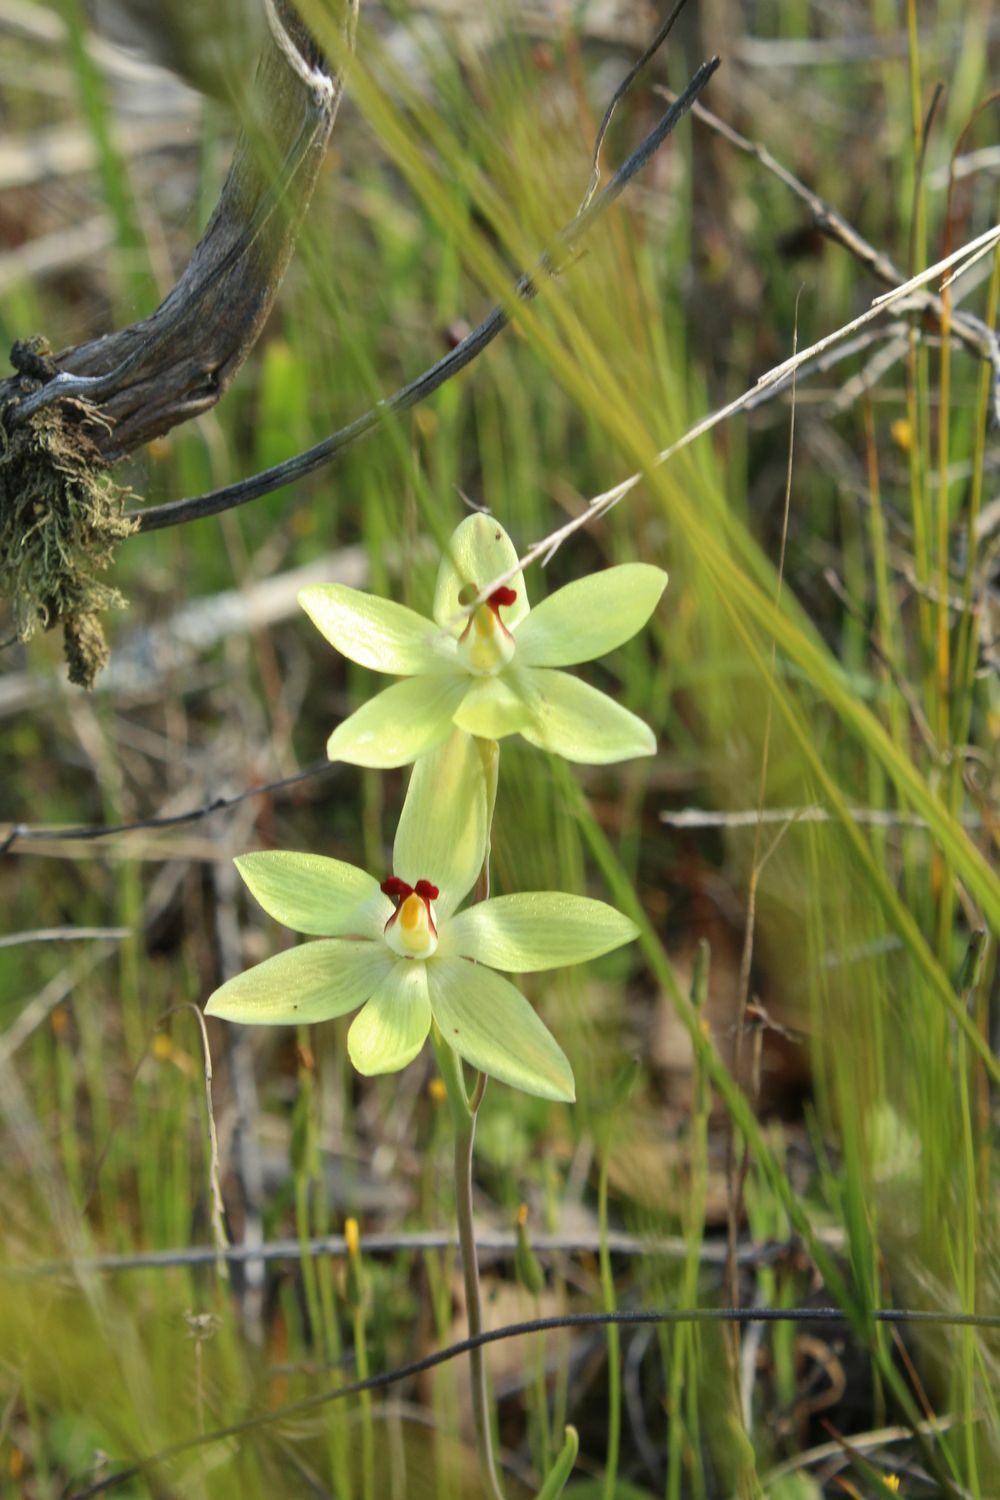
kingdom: Plantae
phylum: Tracheophyta
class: Liliopsida
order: Asparagales
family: Orchidaceae
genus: Thelymitra
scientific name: Thelymitra antennifera
